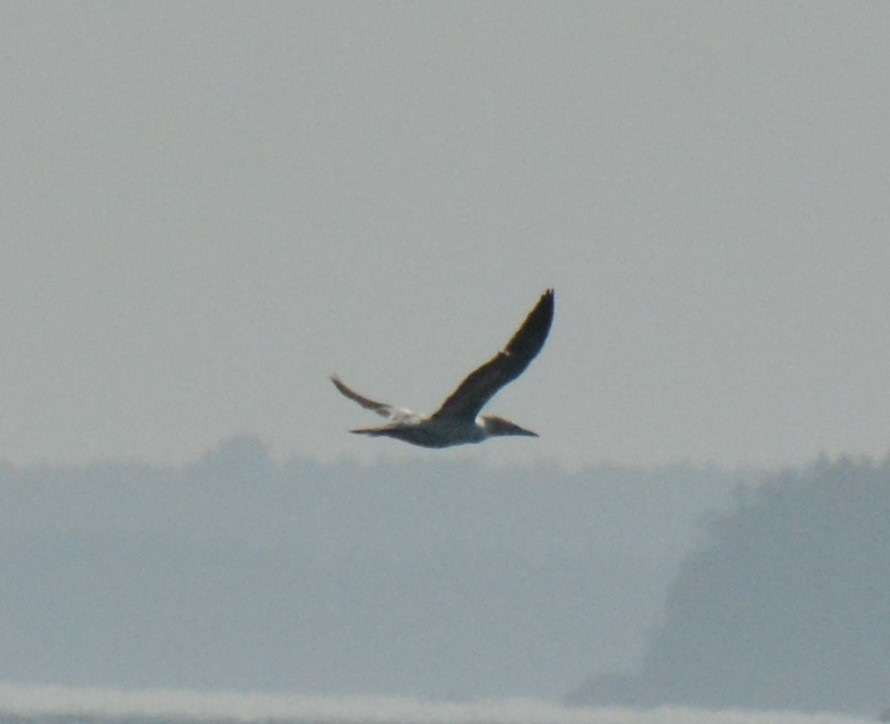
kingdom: Animalia
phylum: Chordata
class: Aves
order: Suliformes
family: Sulidae
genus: Morus
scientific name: Morus bassanus
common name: Northern gannet
